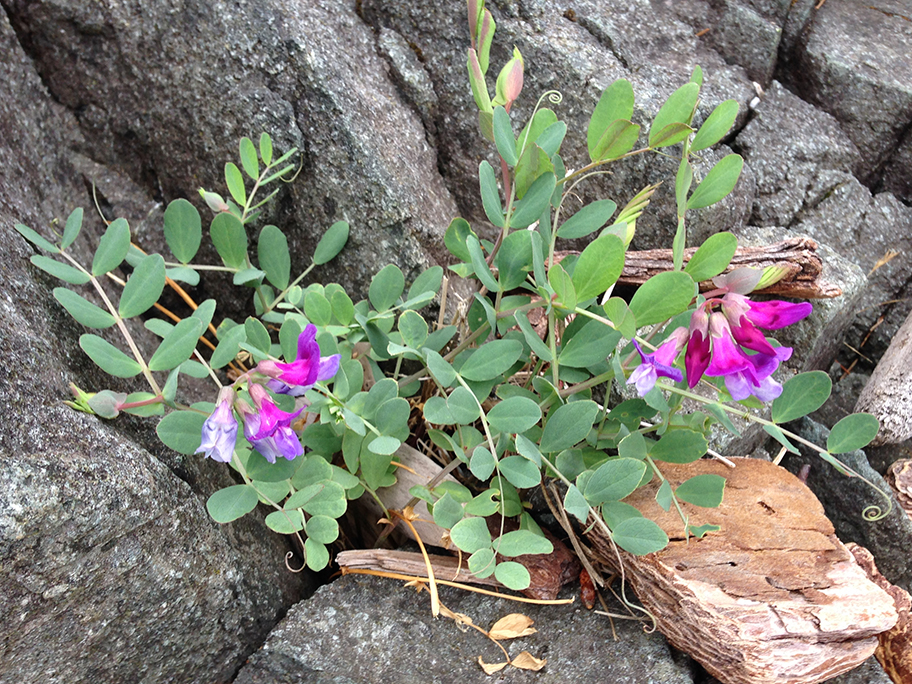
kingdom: Plantae
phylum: Tracheophyta
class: Magnoliopsida
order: Fabales
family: Fabaceae
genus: Lathyrus
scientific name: Lathyrus japonicus
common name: Sea pea
